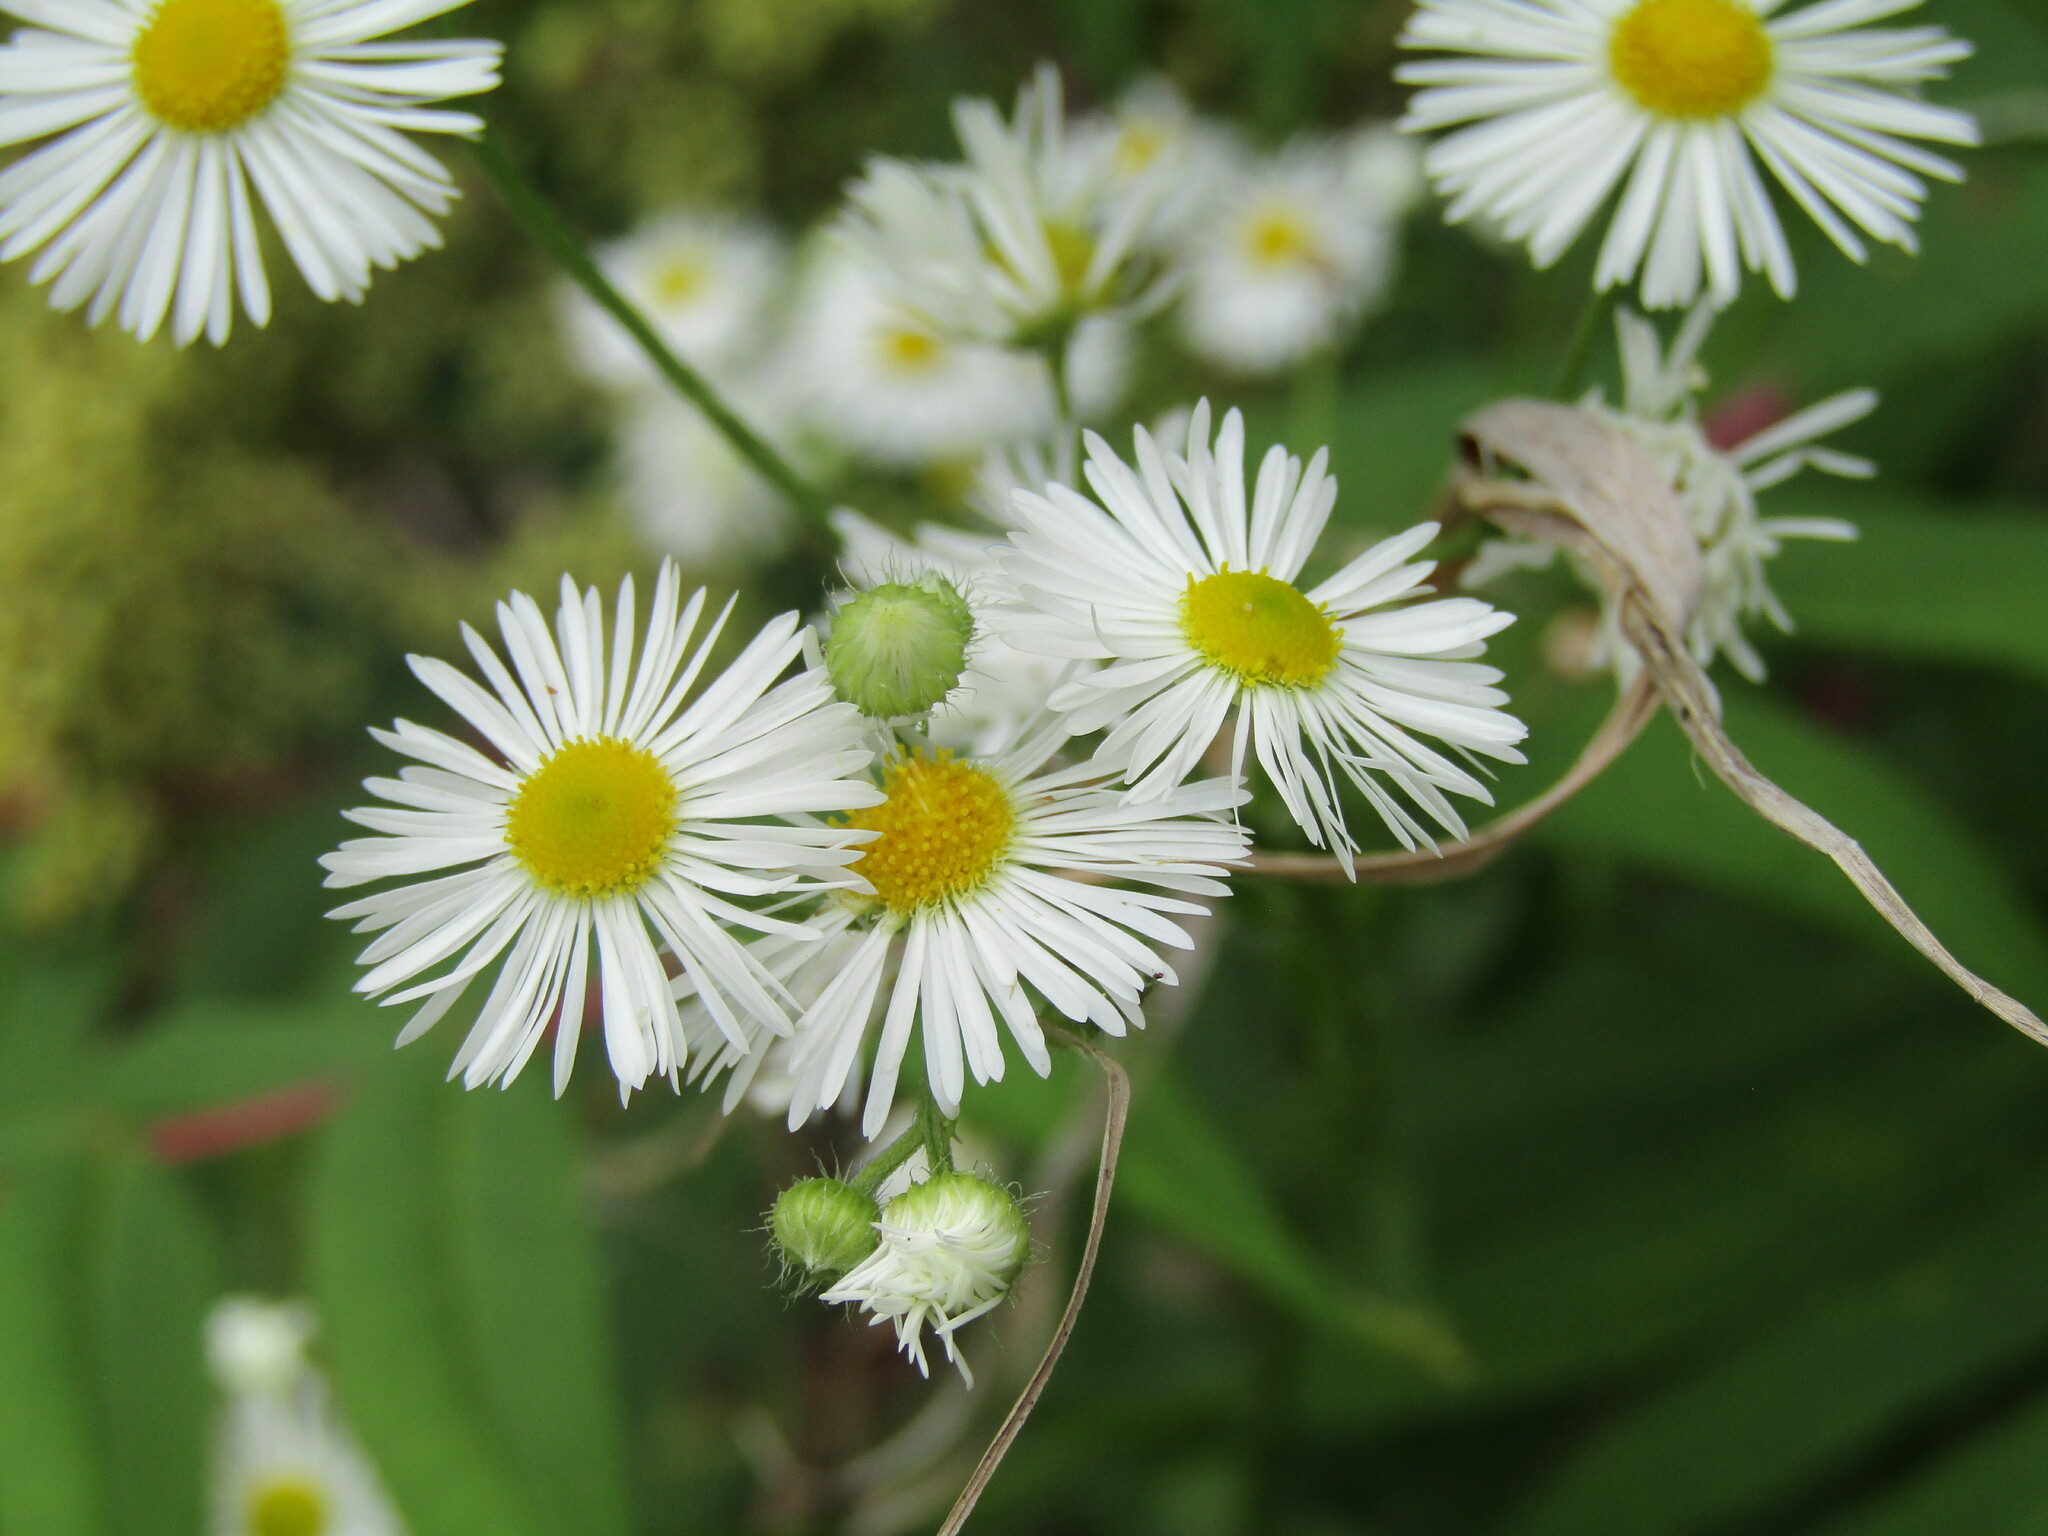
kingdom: Plantae
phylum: Tracheophyta
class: Magnoliopsida
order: Asterales
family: Asteraceae
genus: Erigeron
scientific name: Erigeron annuus
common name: Tall fleabane
